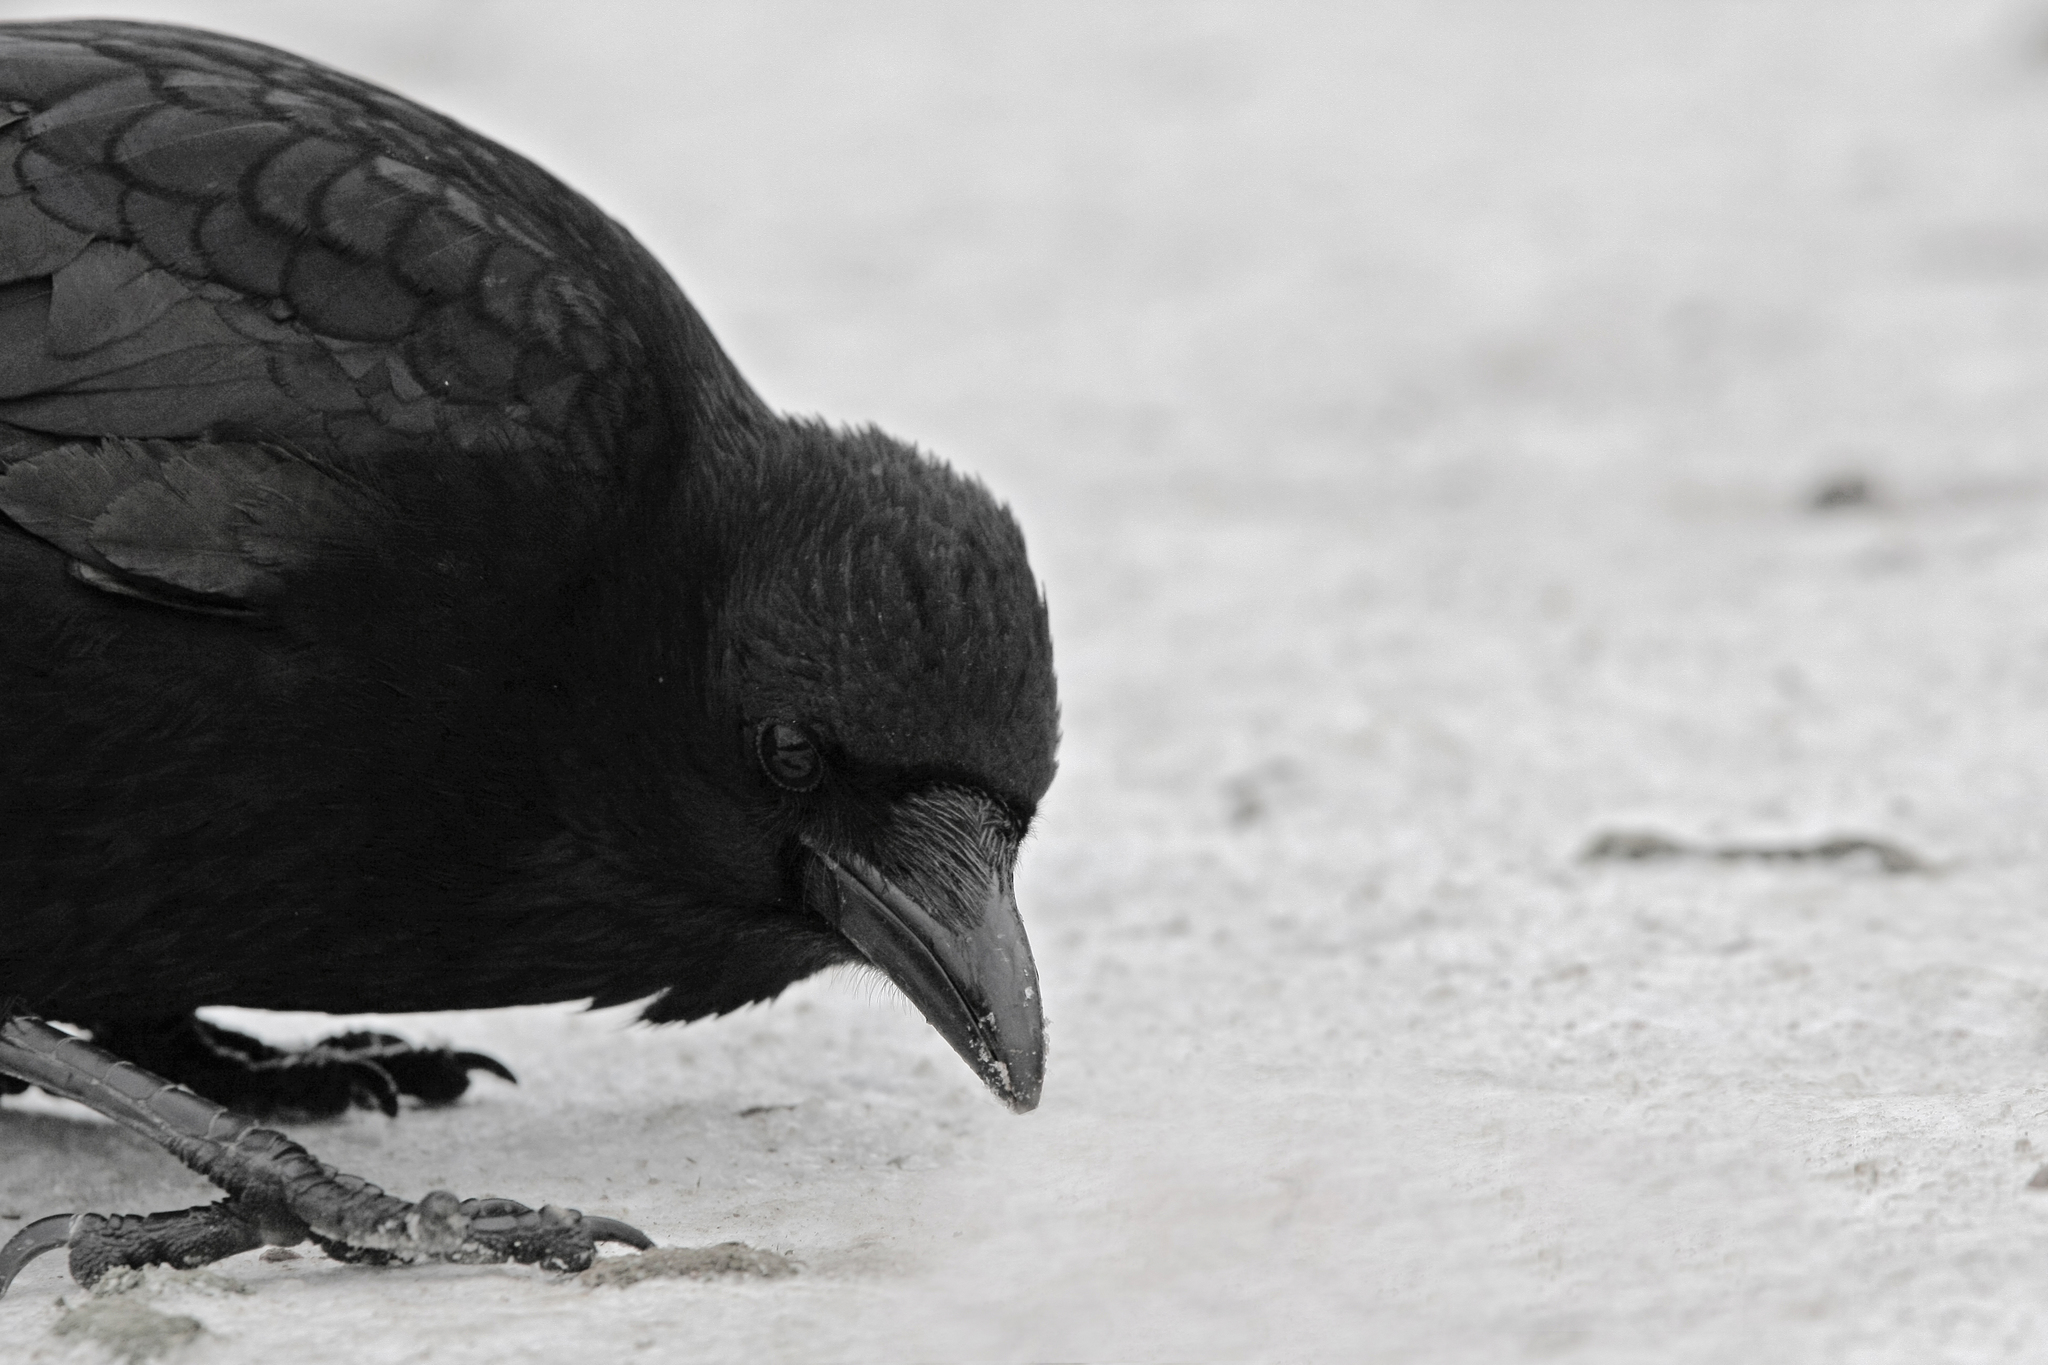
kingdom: Animalia
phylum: Chordata
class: Aves
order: Passeriformes
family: Corvidae
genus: Corvus
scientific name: Corvus corone
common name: Carrion crow
